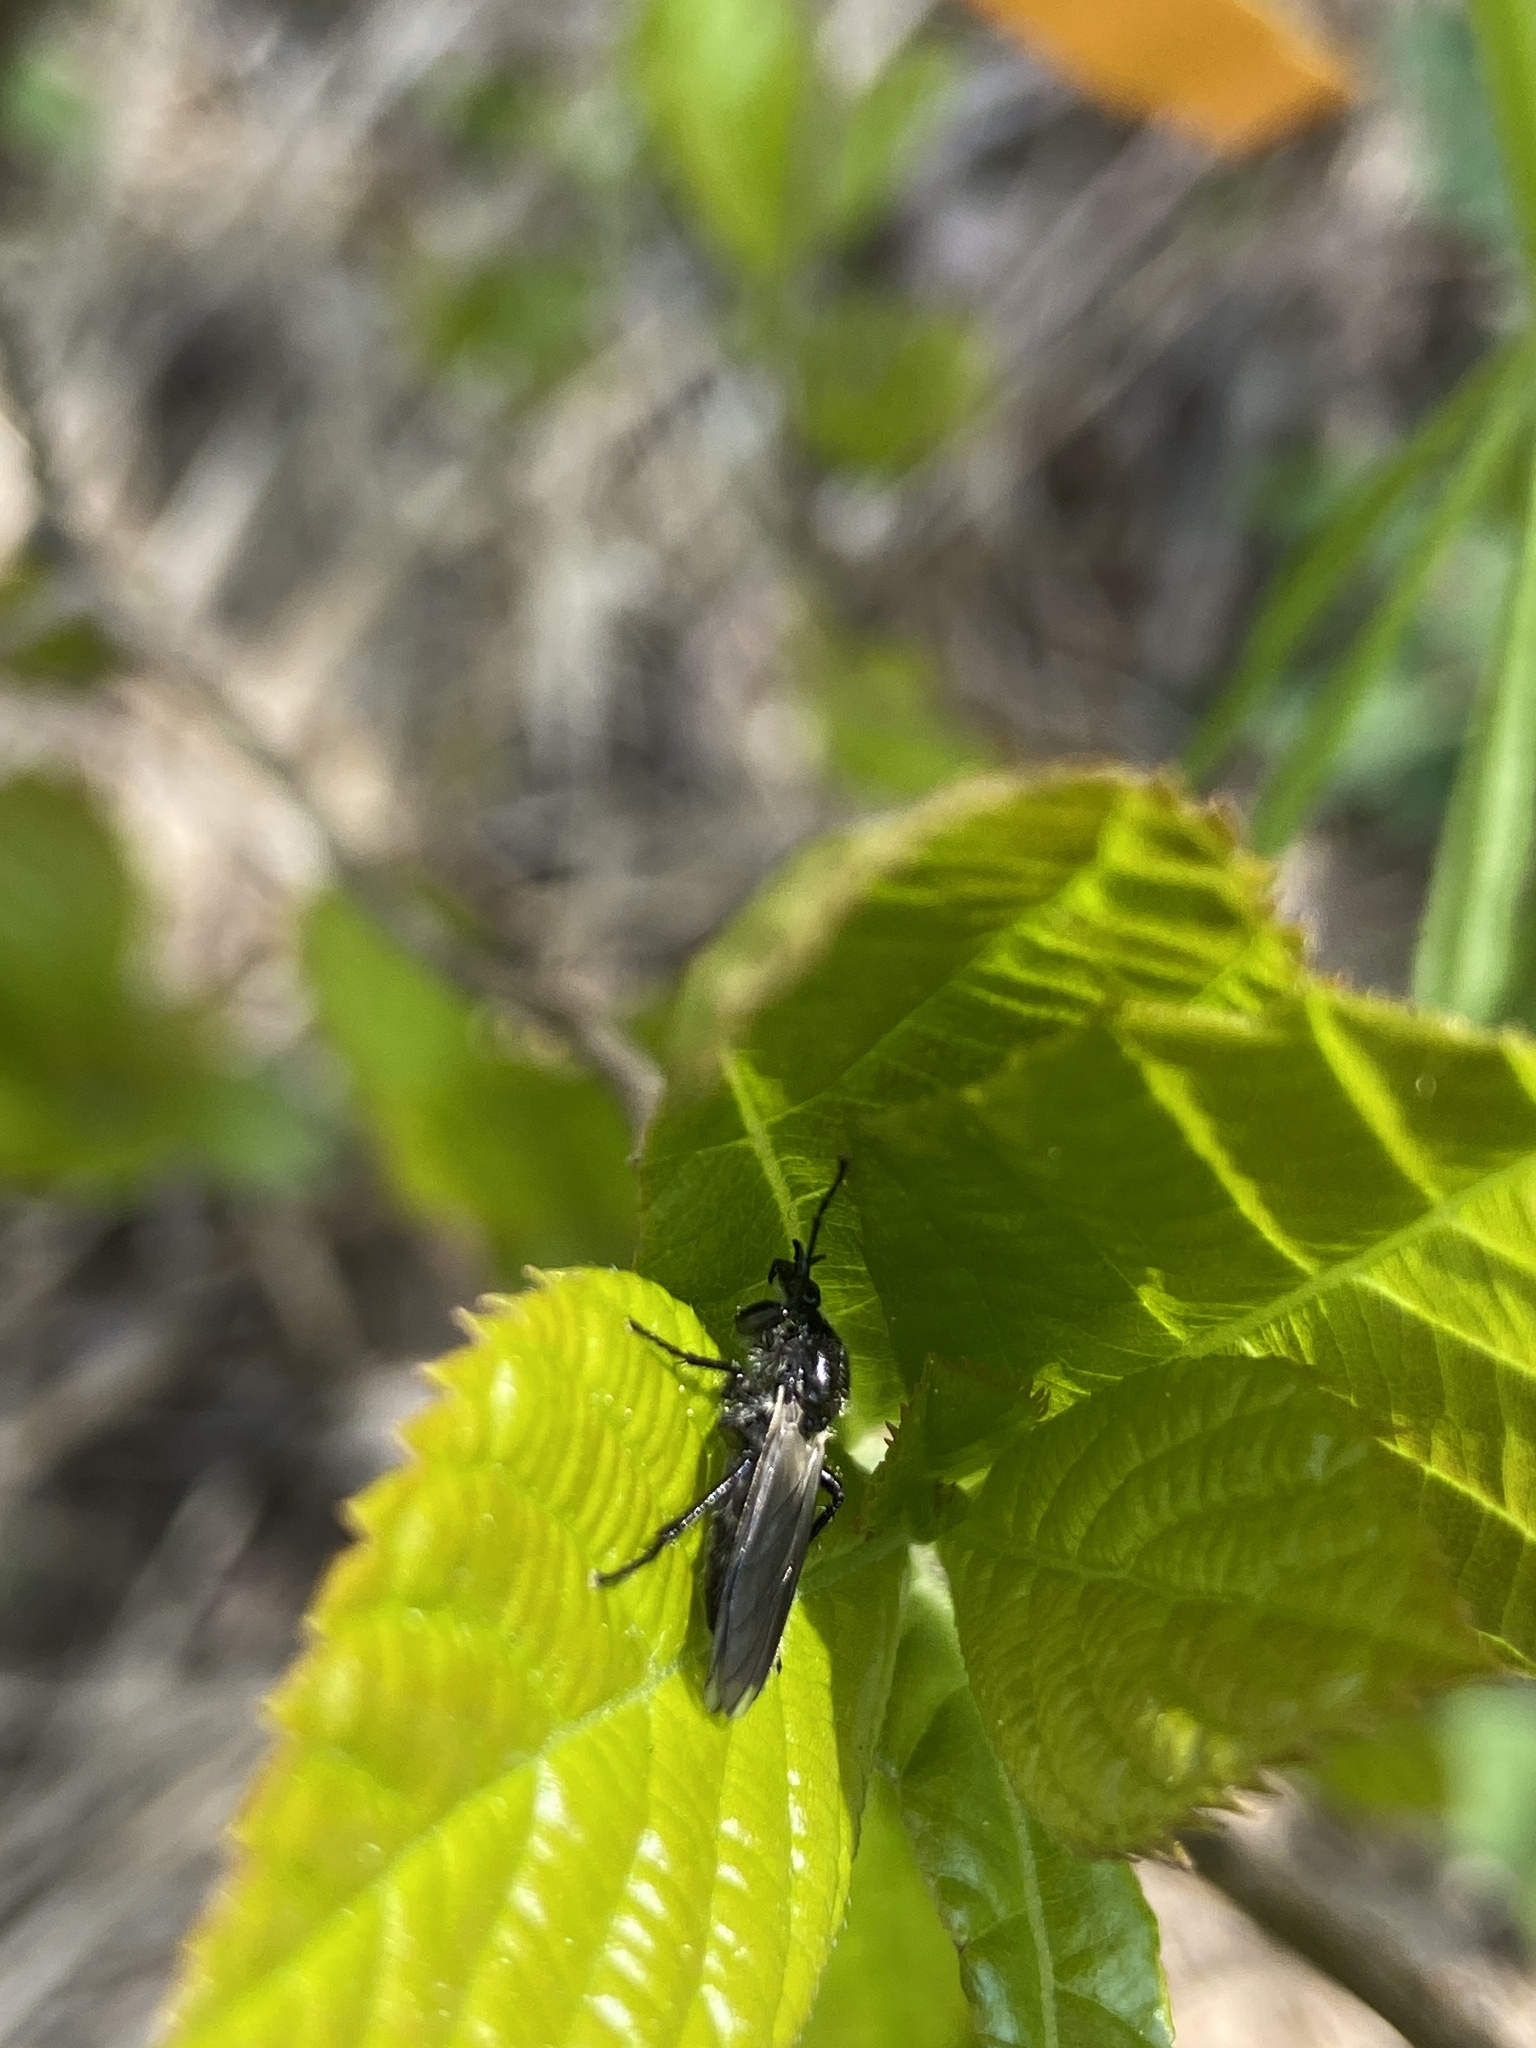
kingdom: Animalia
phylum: Arthropoda
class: Insecta
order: Diptera
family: Bibionidae
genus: Bibio
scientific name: Bibio albipennis
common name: White-winged march fly
